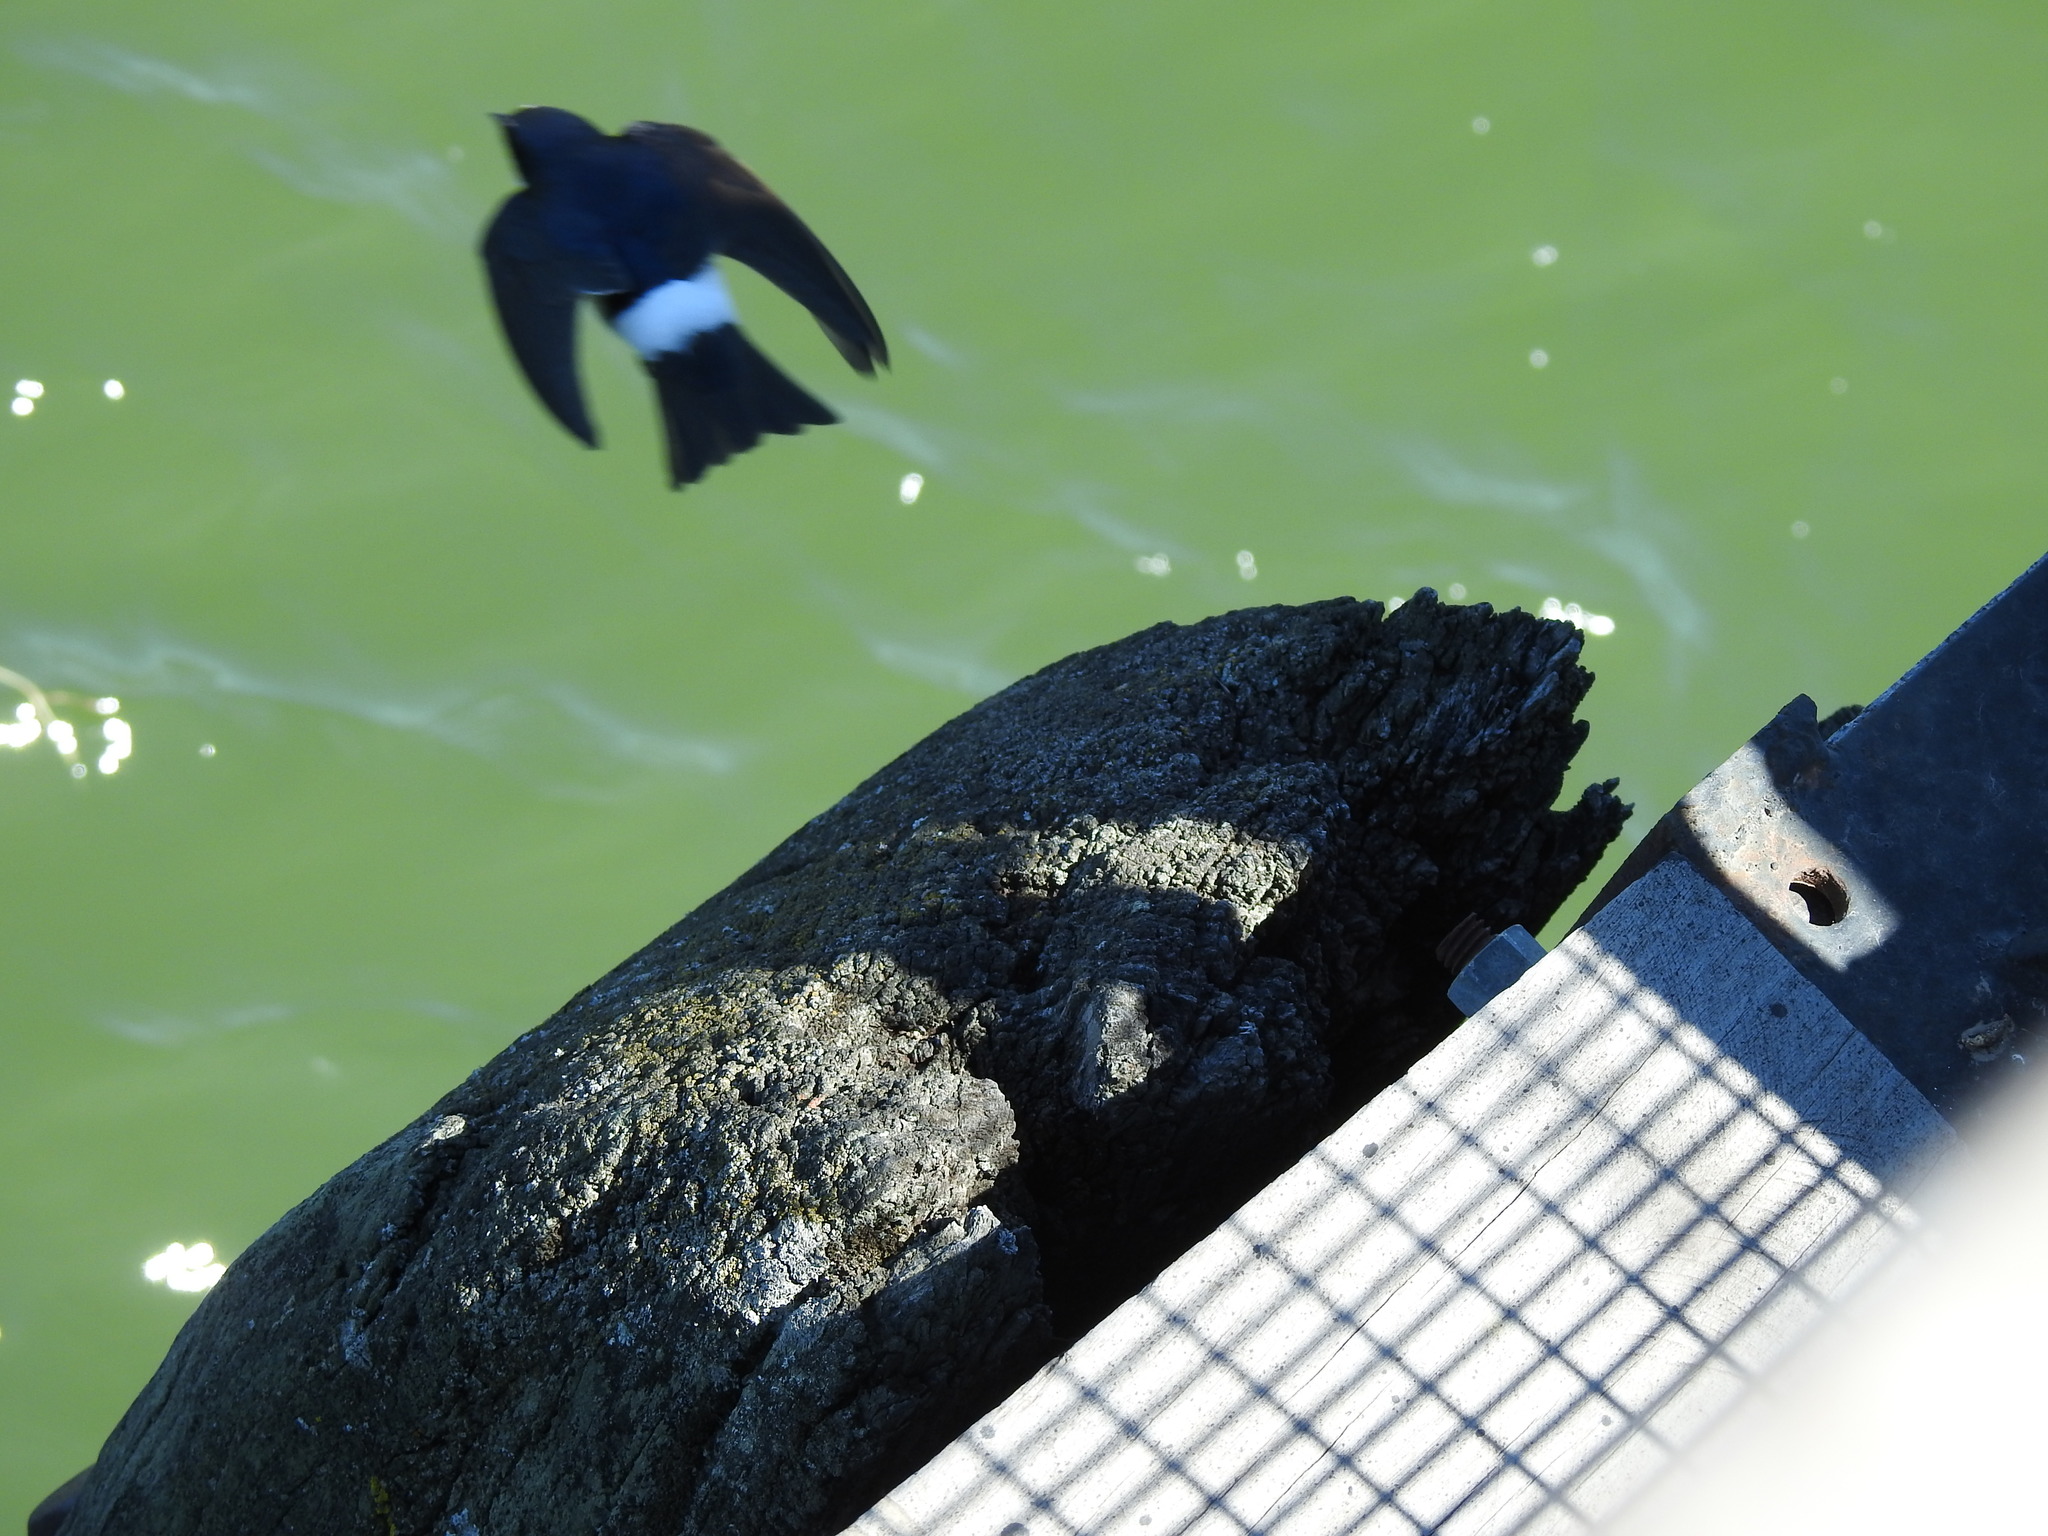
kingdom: Animalia
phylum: Chordata
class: Aves
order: Passeriformes
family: Hirundinidae
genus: Tachycineta
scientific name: Tachycineta leucorrhoa
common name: White-rumped swallow
